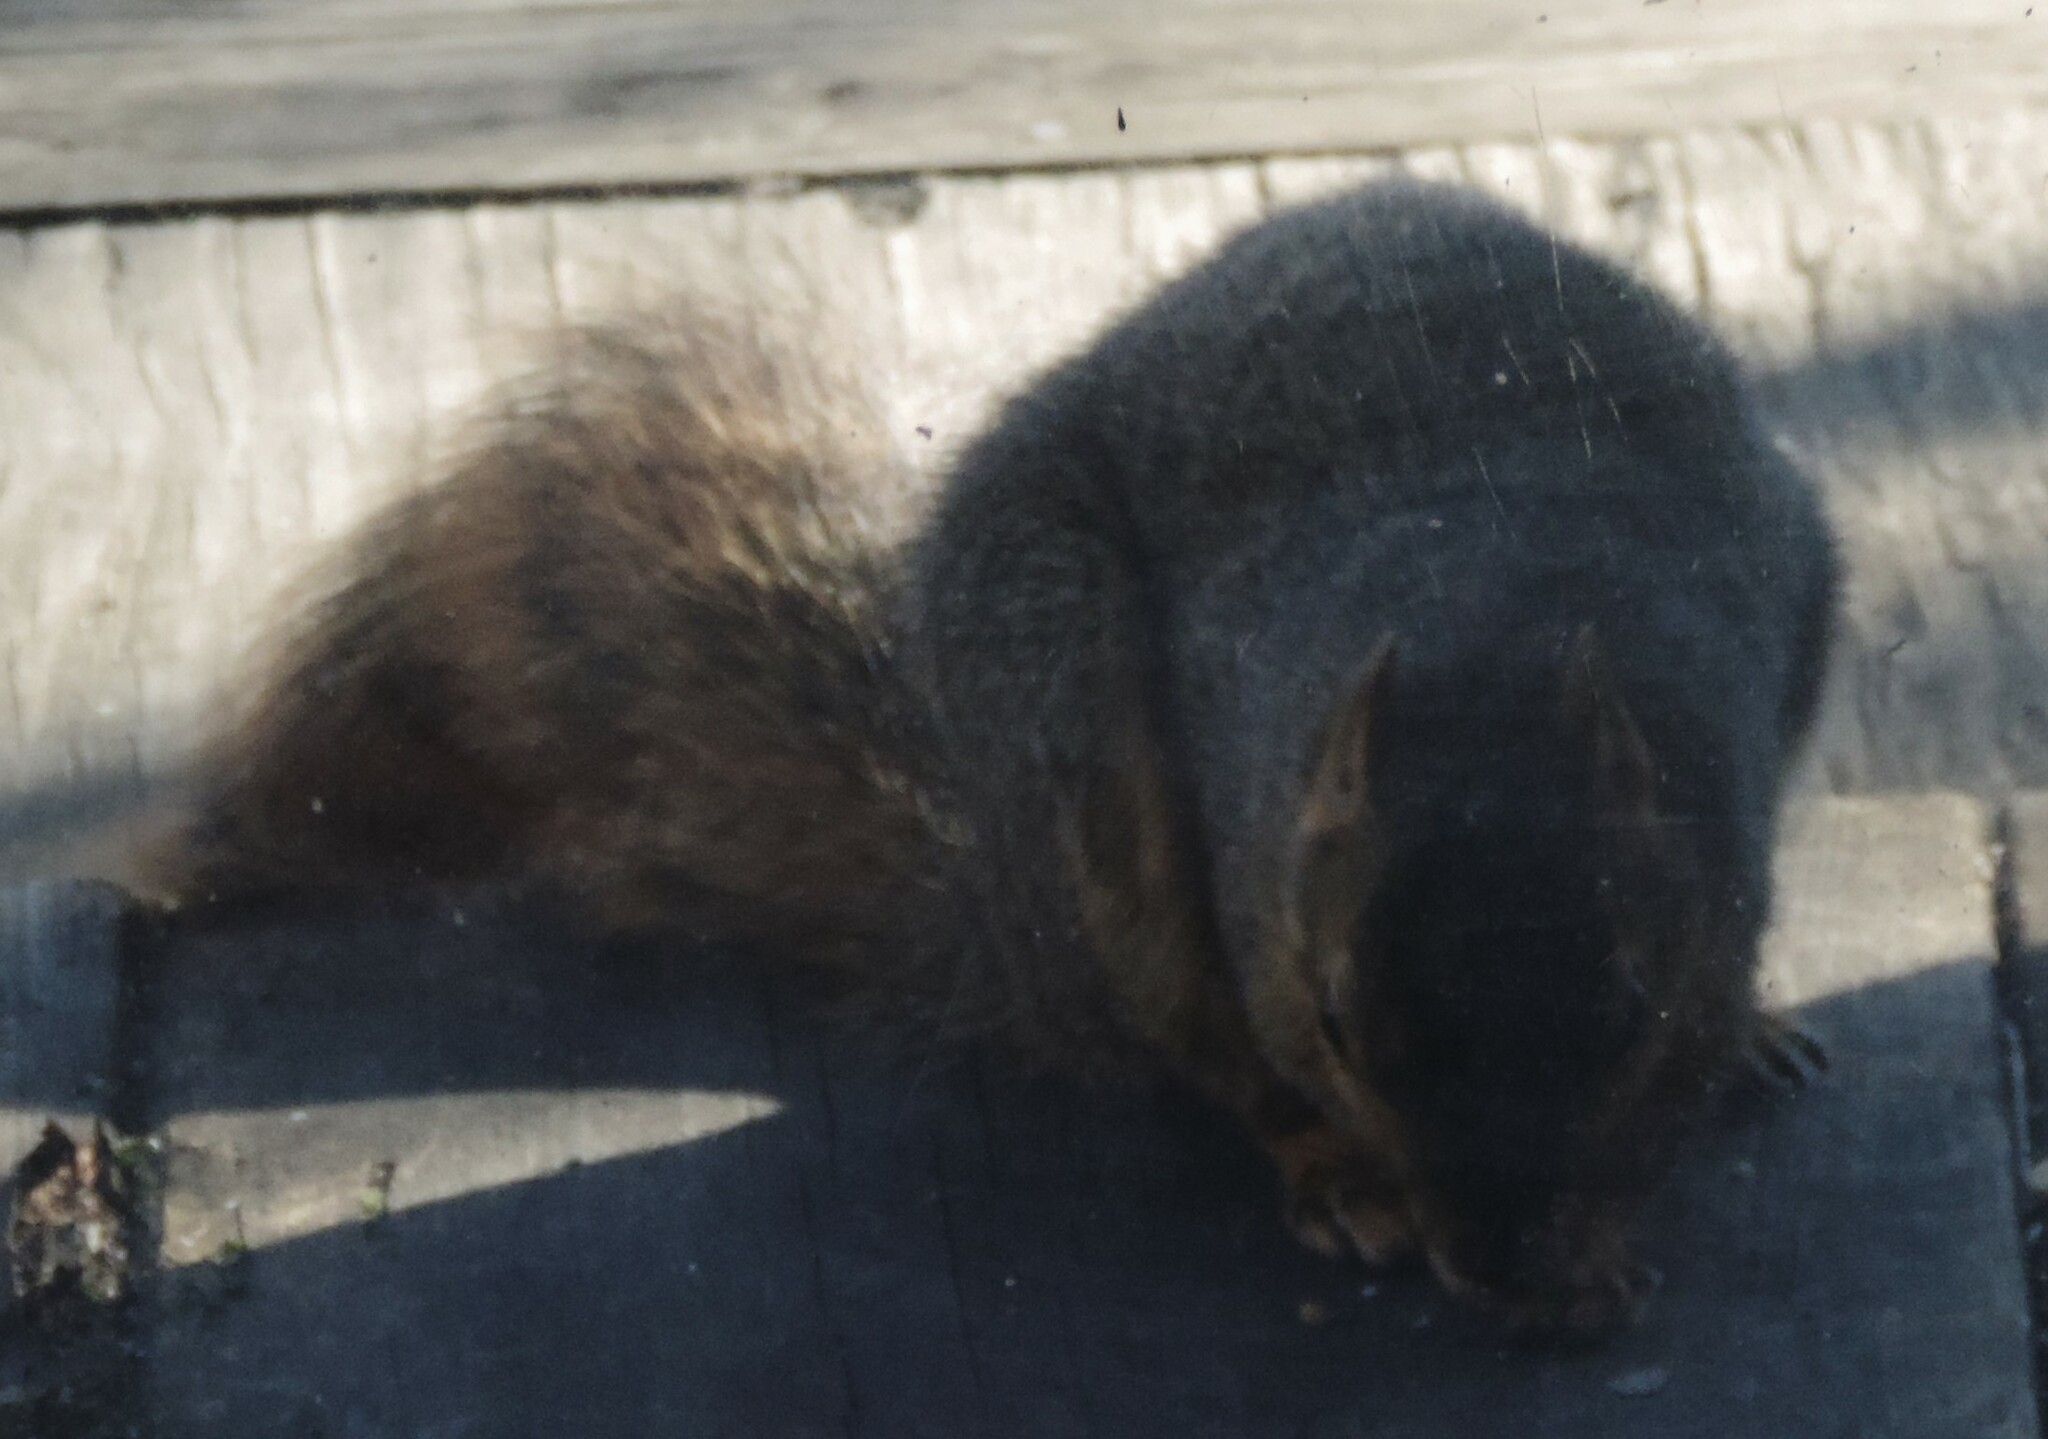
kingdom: Animalia
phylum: Chordata
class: Mammalia
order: Rodentia
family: Sciuridae
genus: Sciurus
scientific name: Sciurus niger
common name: Fox squirrel
